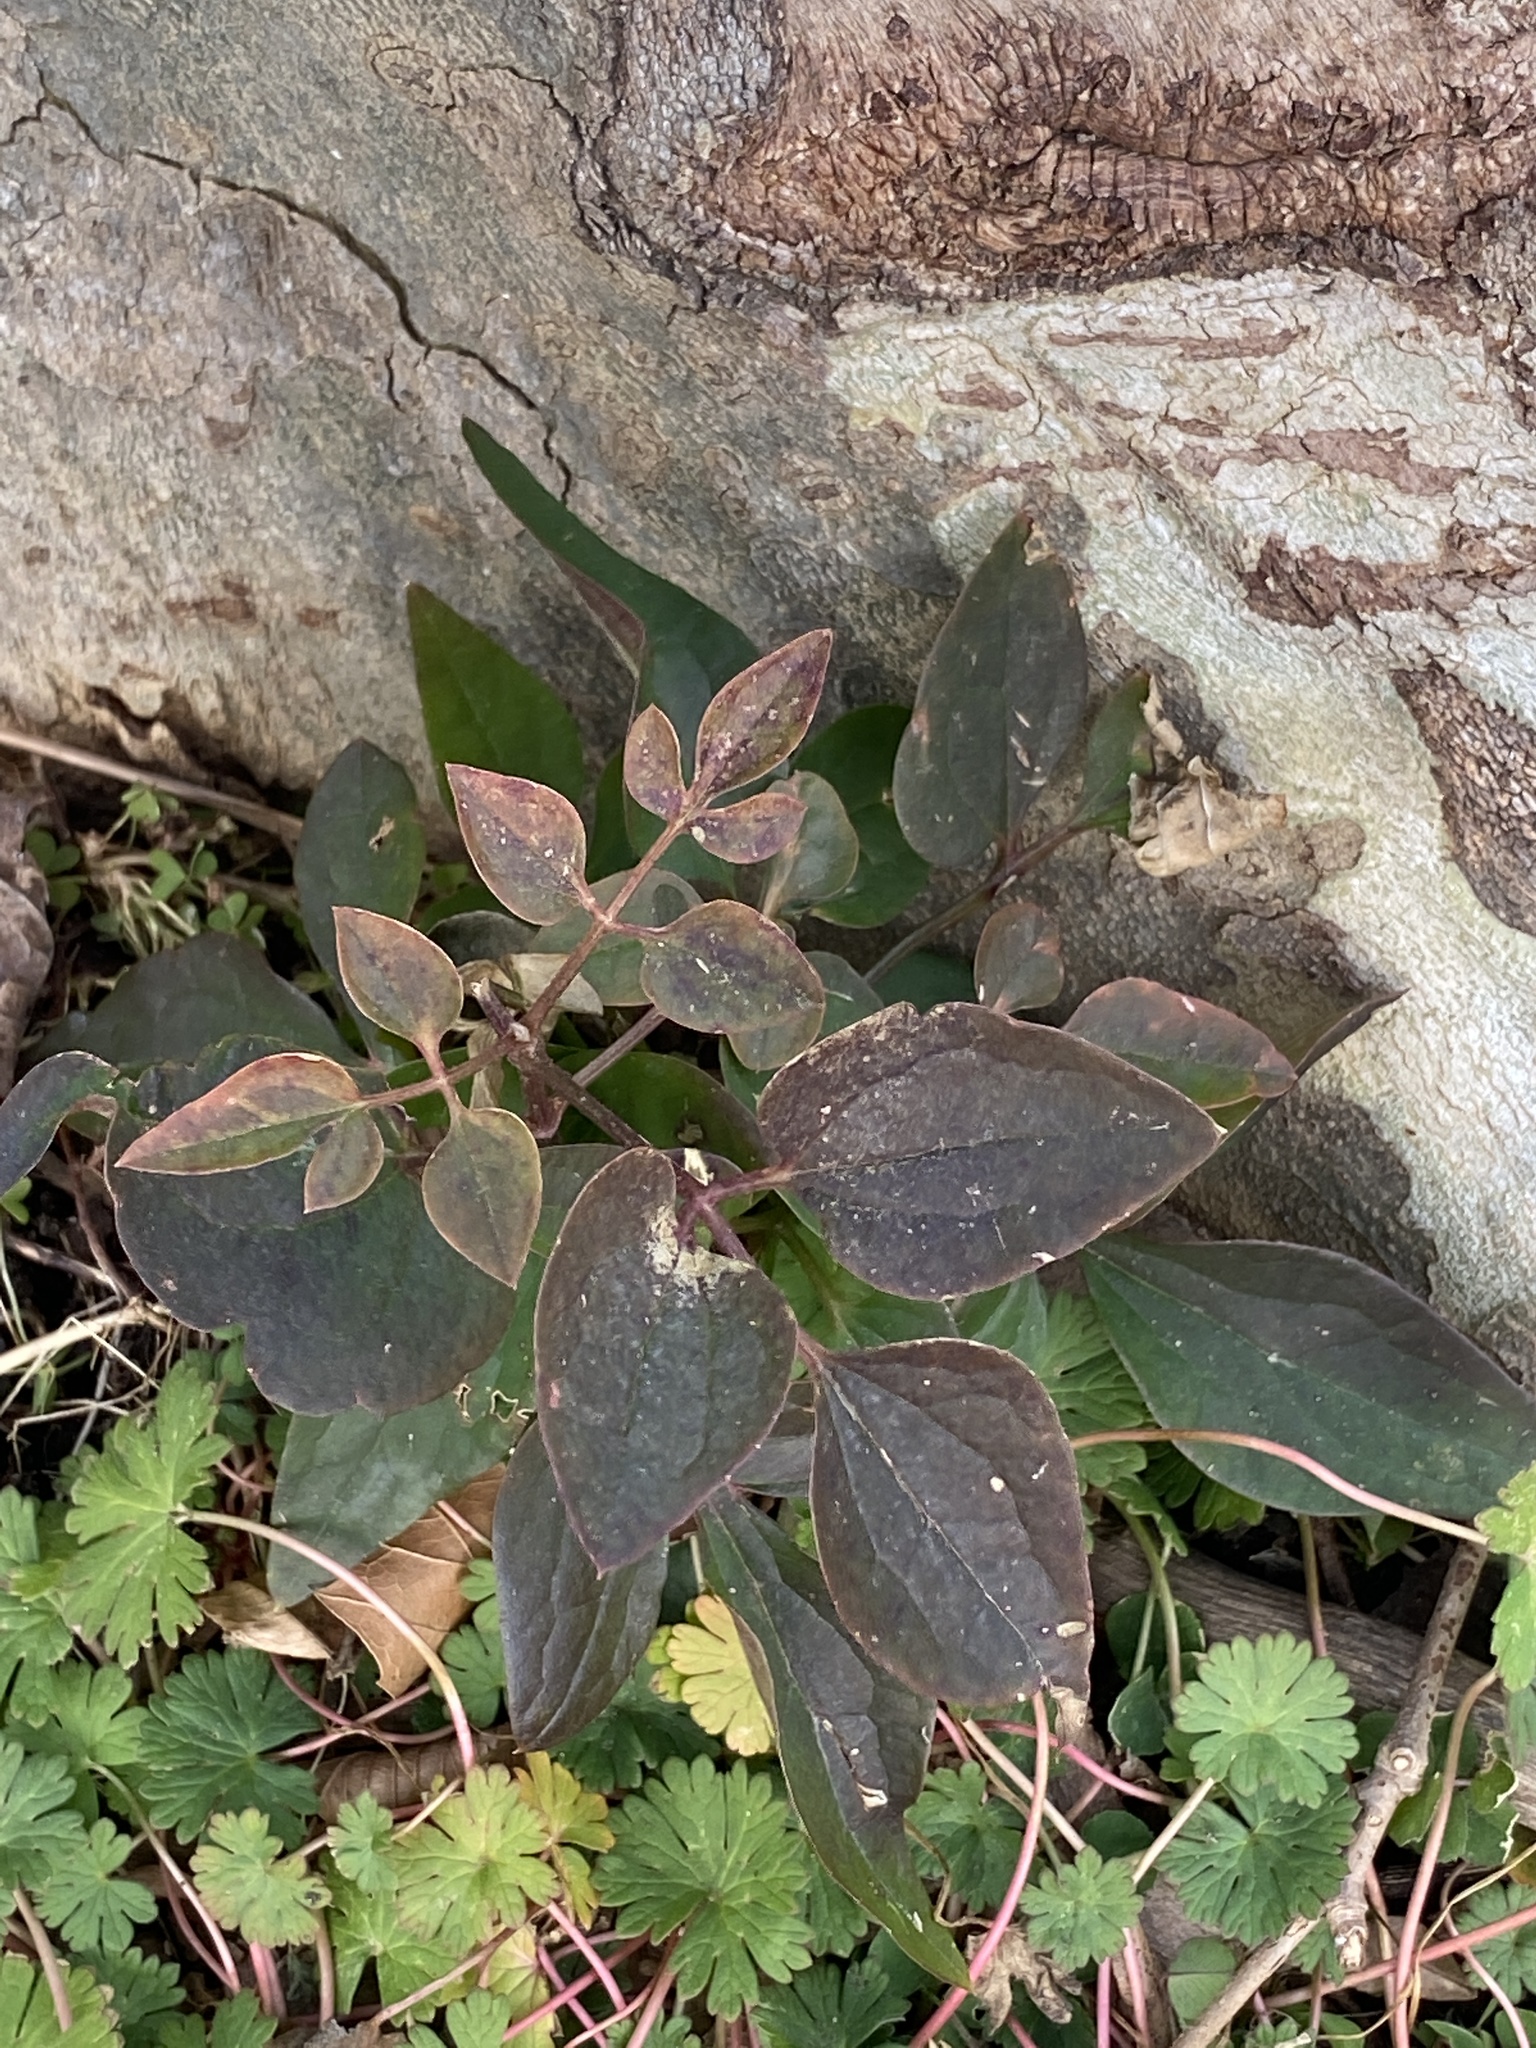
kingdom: Plantae
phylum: Tracheophyta
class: Magnoliopsida
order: Ranunculales
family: Ranunculaceae
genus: Clematis
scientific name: Clematis terniflora
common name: Sweet autumn clematis
